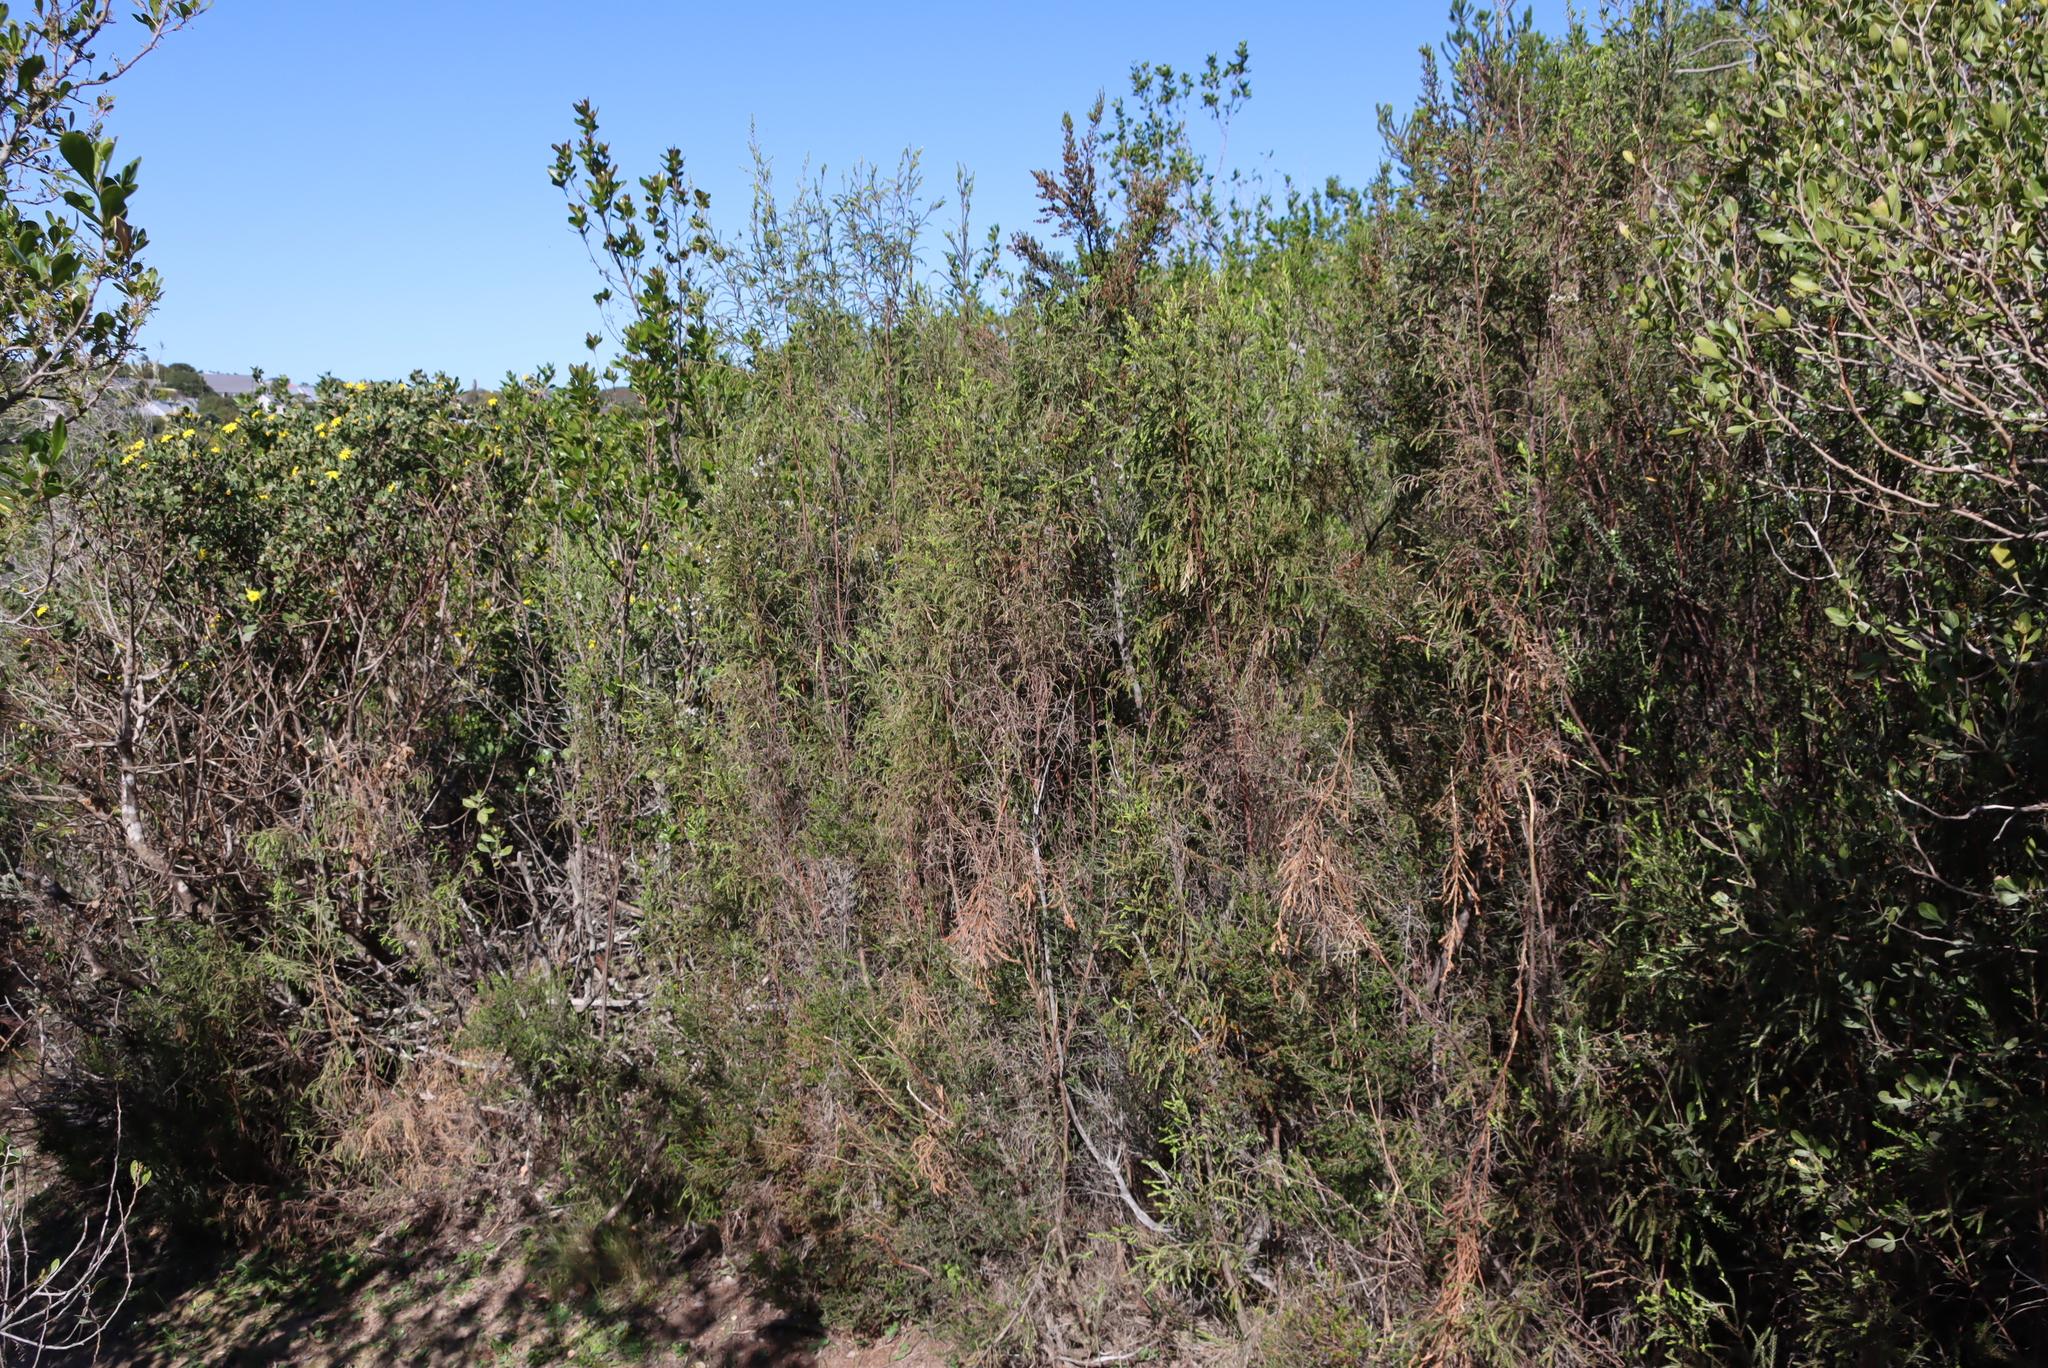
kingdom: Plantae
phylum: Tracheophyta
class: Magnoliopsida
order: Malvales
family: Thymelaeaceae
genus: Passerina
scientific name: Passerina falcifolia
